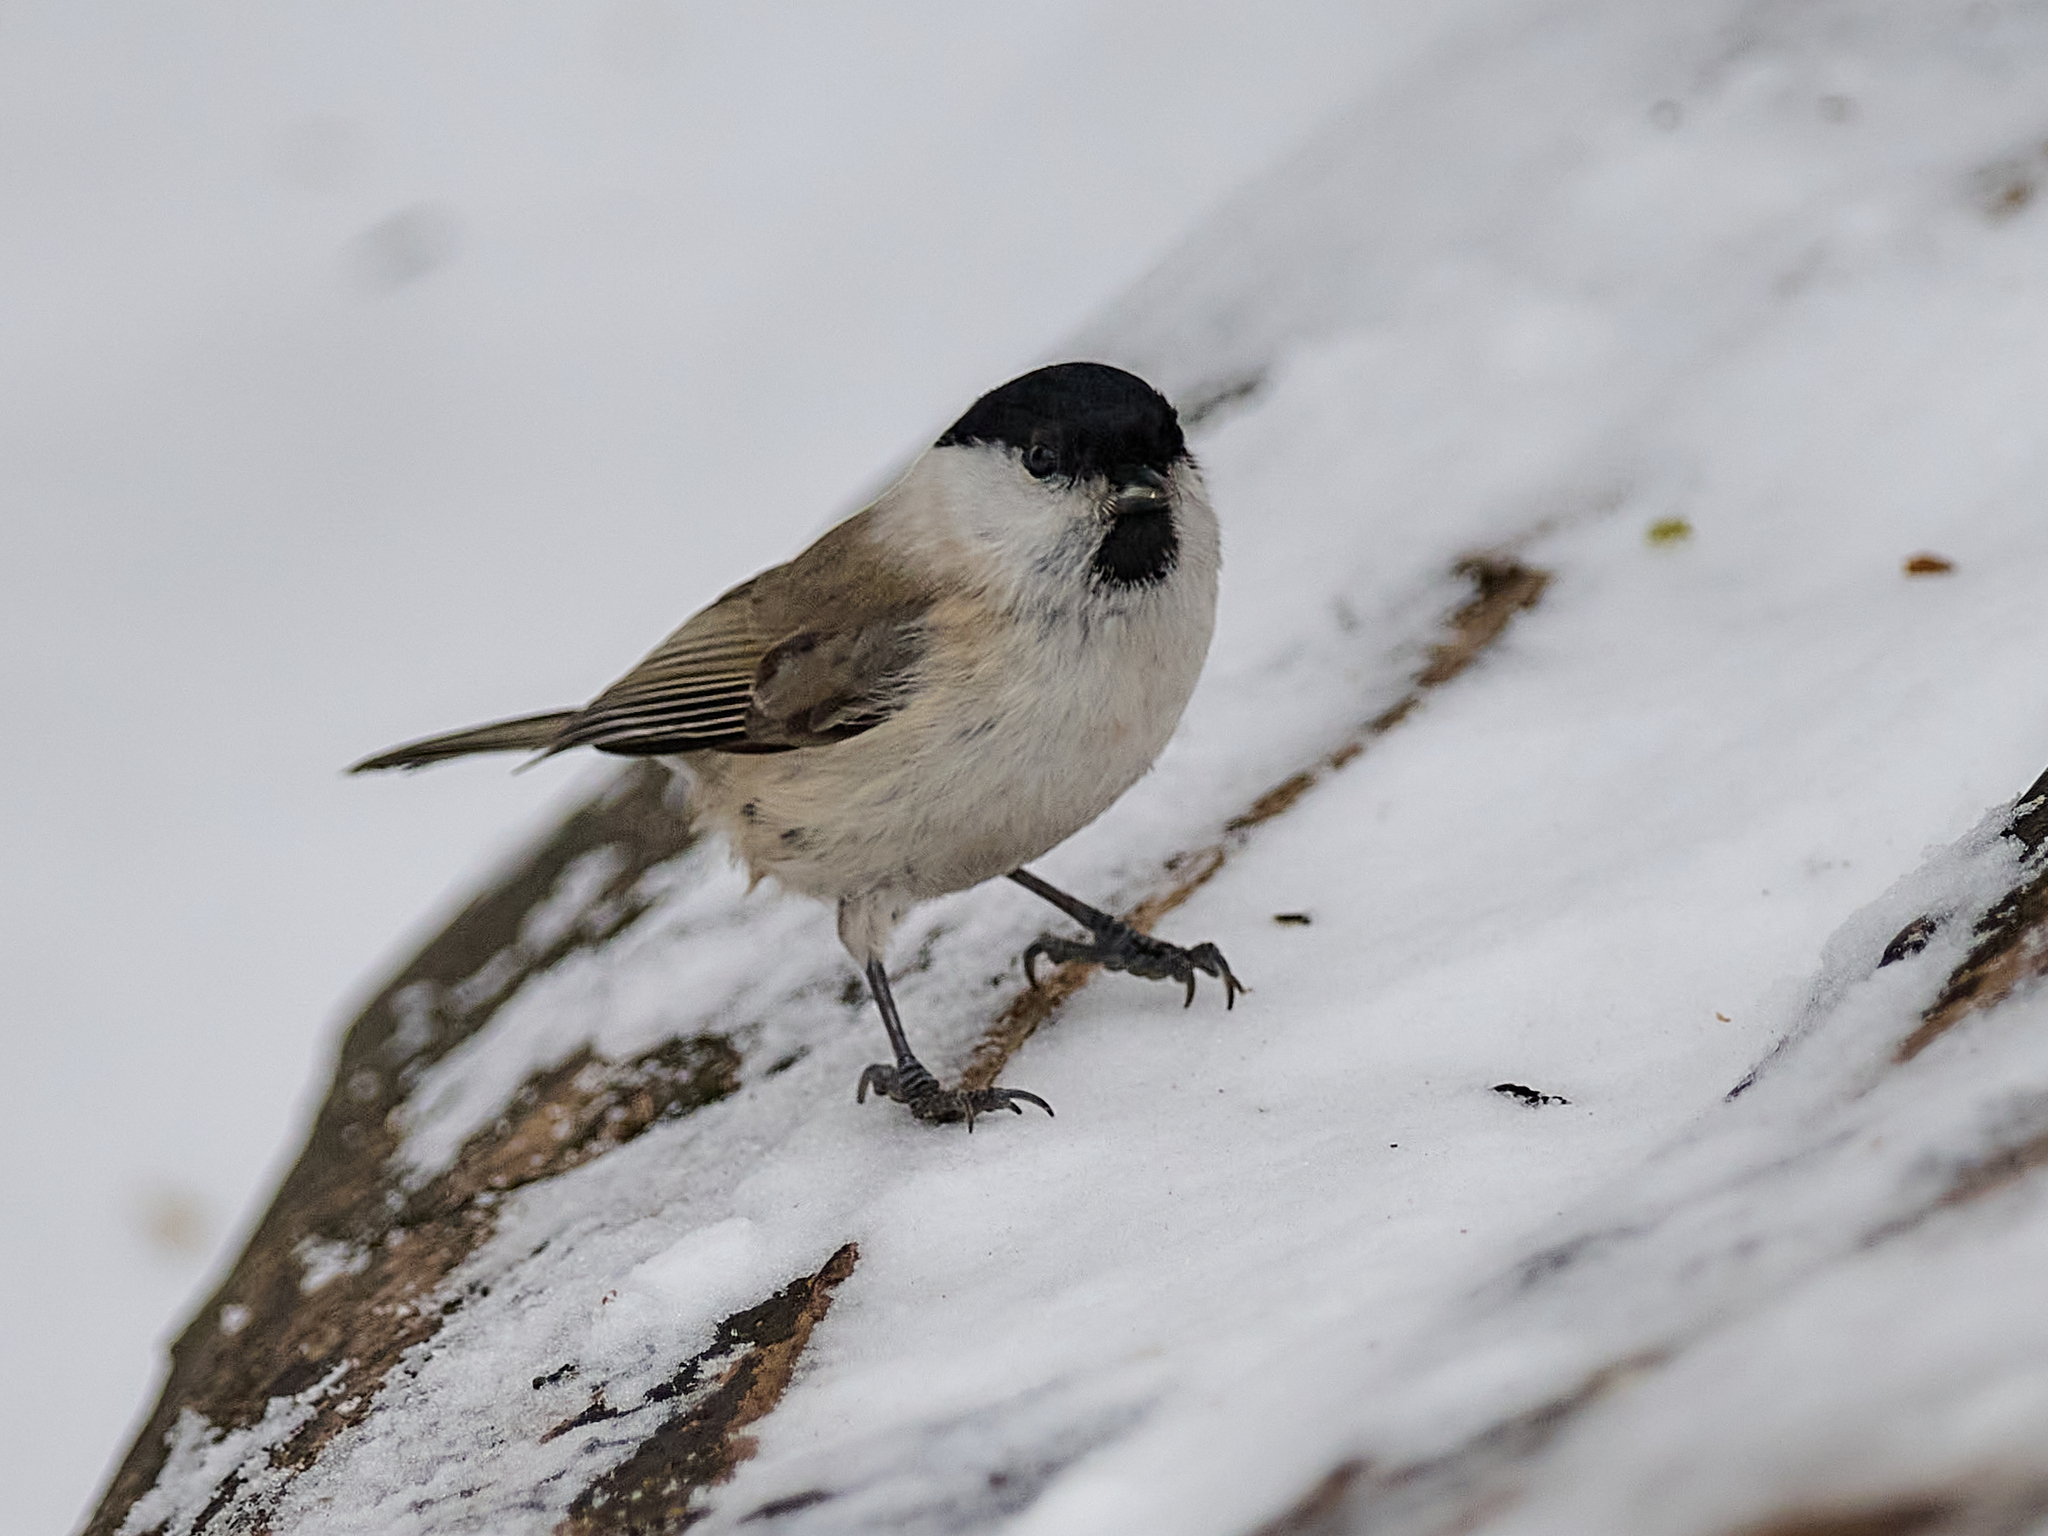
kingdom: Animalia
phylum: Chordata
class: Aves
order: Passeriformes
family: Paridae
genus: Poecile
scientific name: Poecile palustris
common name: Marsh tit
